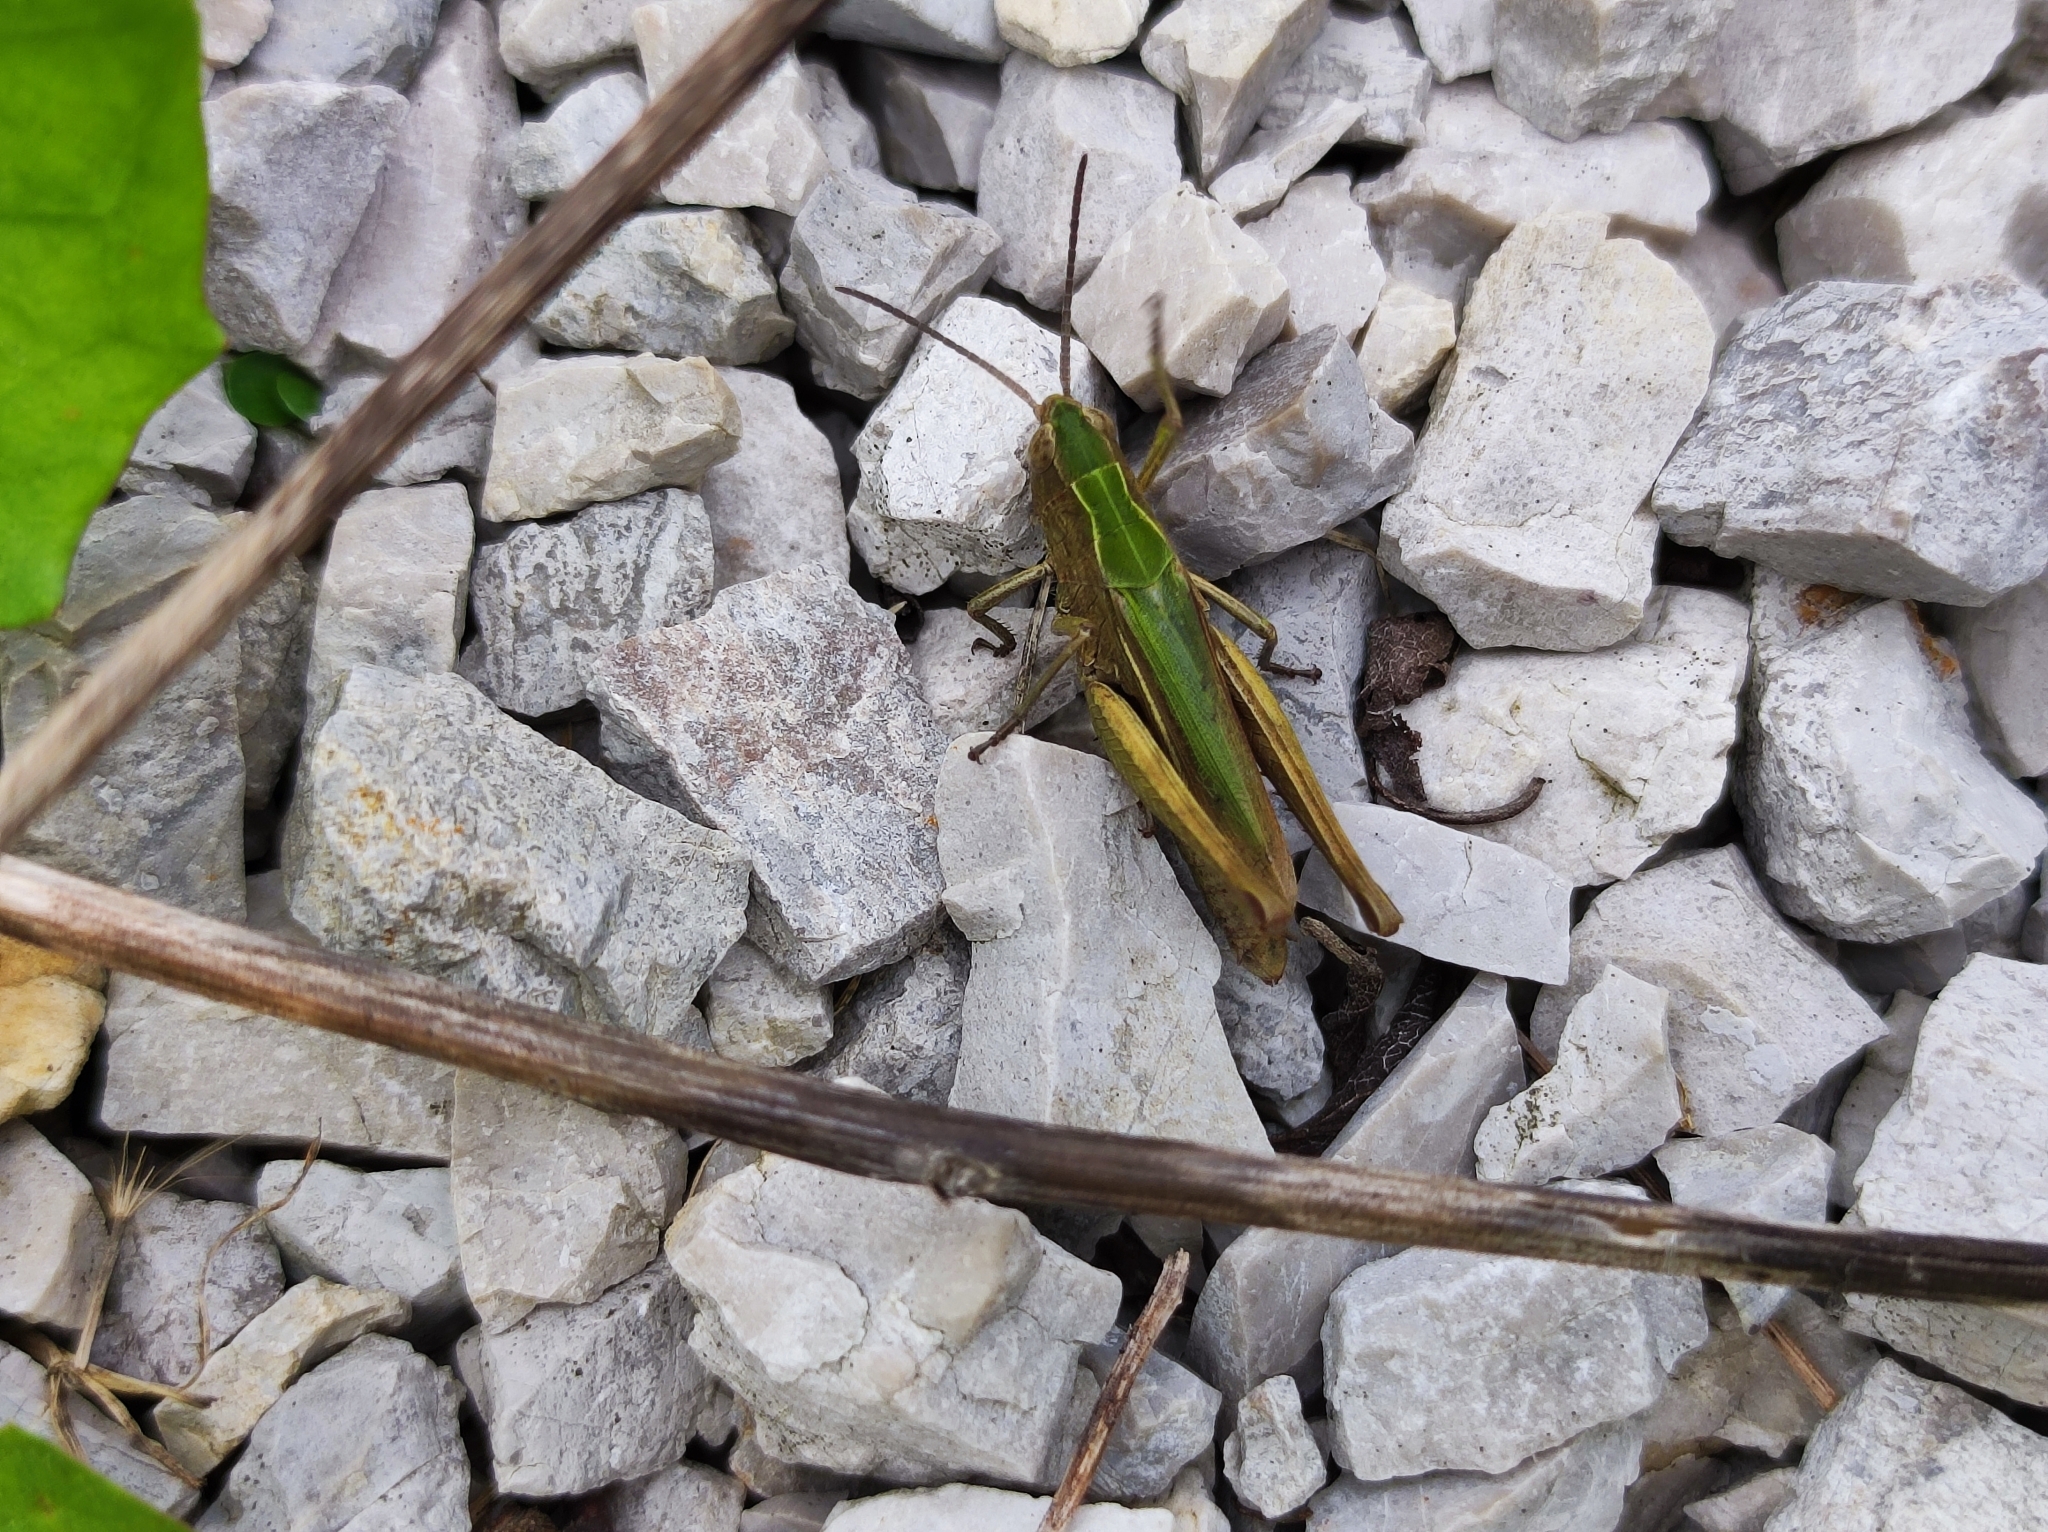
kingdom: Animalia
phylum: Arthropoda
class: Insecta
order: Orthoptera
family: Acrididae
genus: Chorthippus
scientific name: Chorthippus dorsatus
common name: Steppe grasshopper
